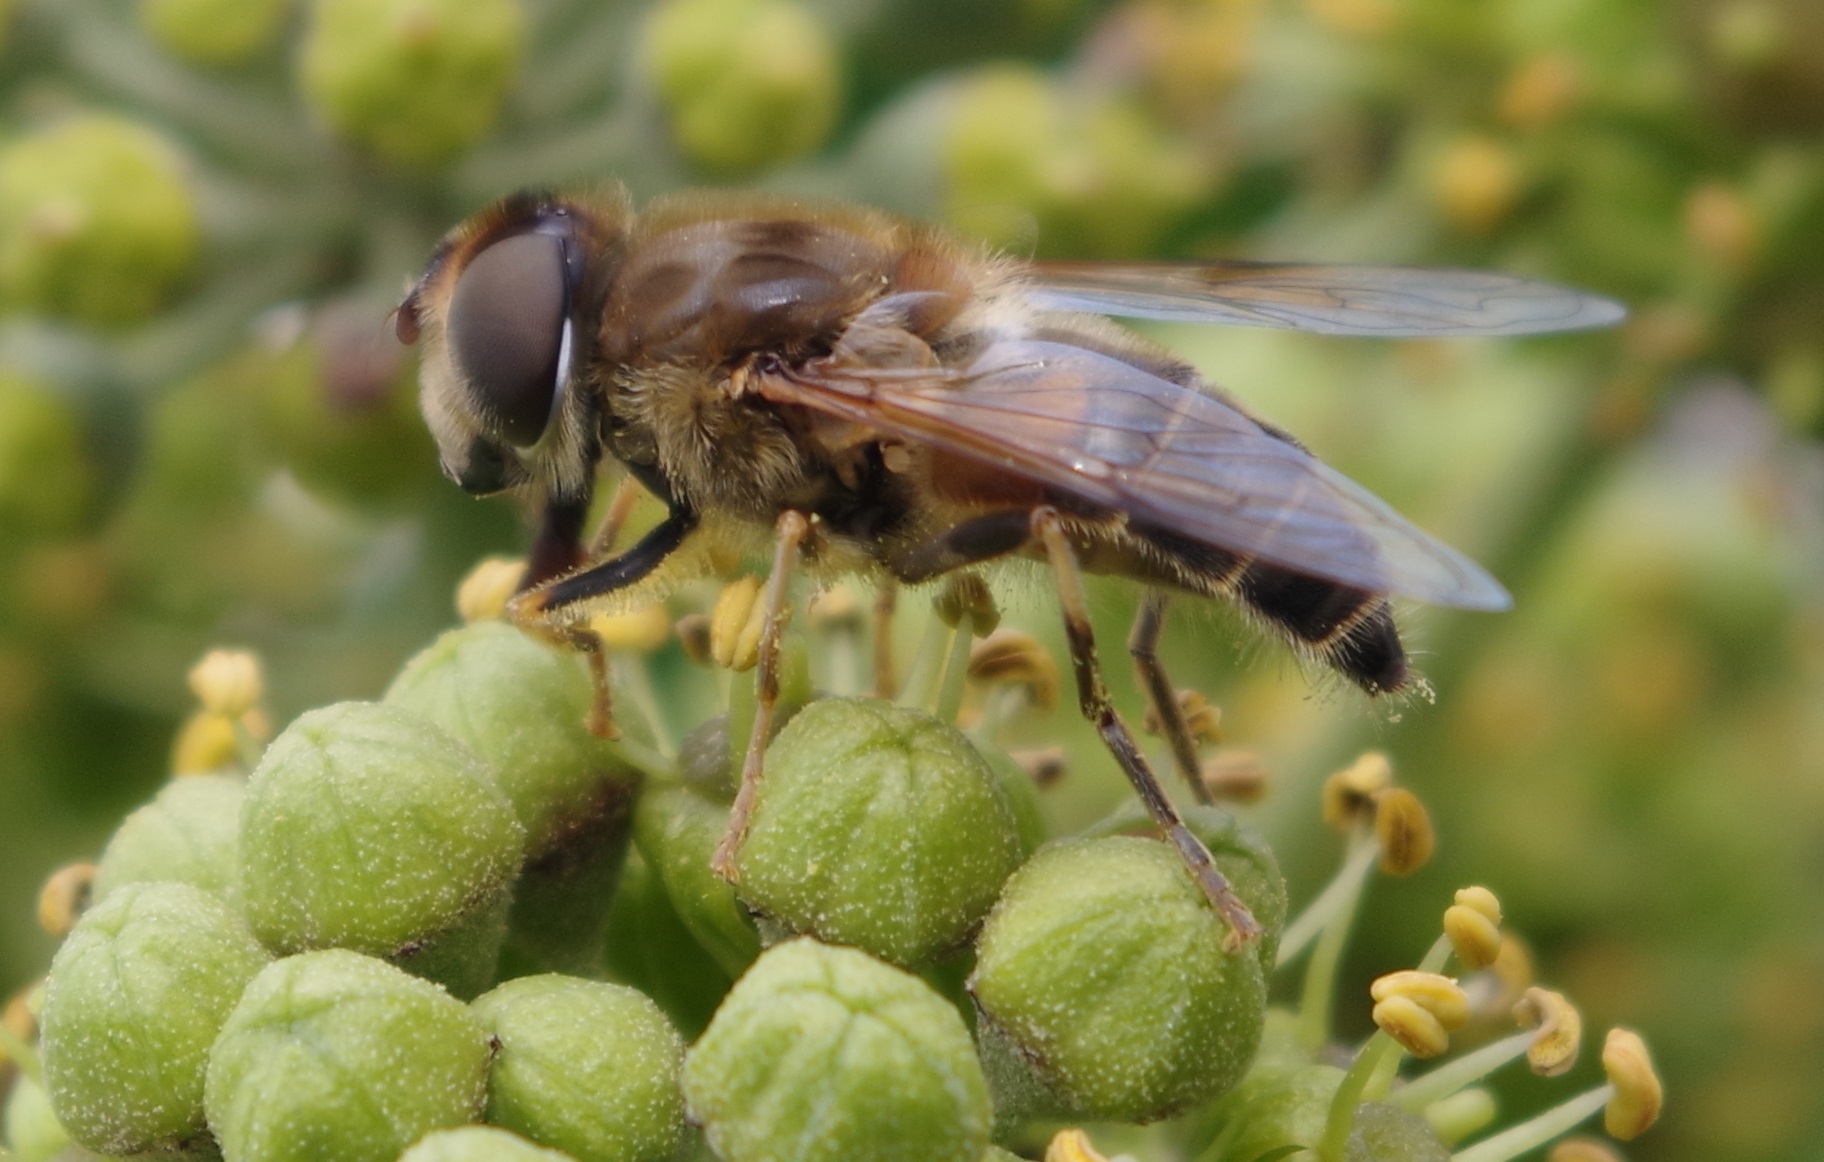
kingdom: Animalia
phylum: Arthropoda
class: Insecta
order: Diptera
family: Syrphidae
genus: Eristalis
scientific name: Eristalis pertinax
